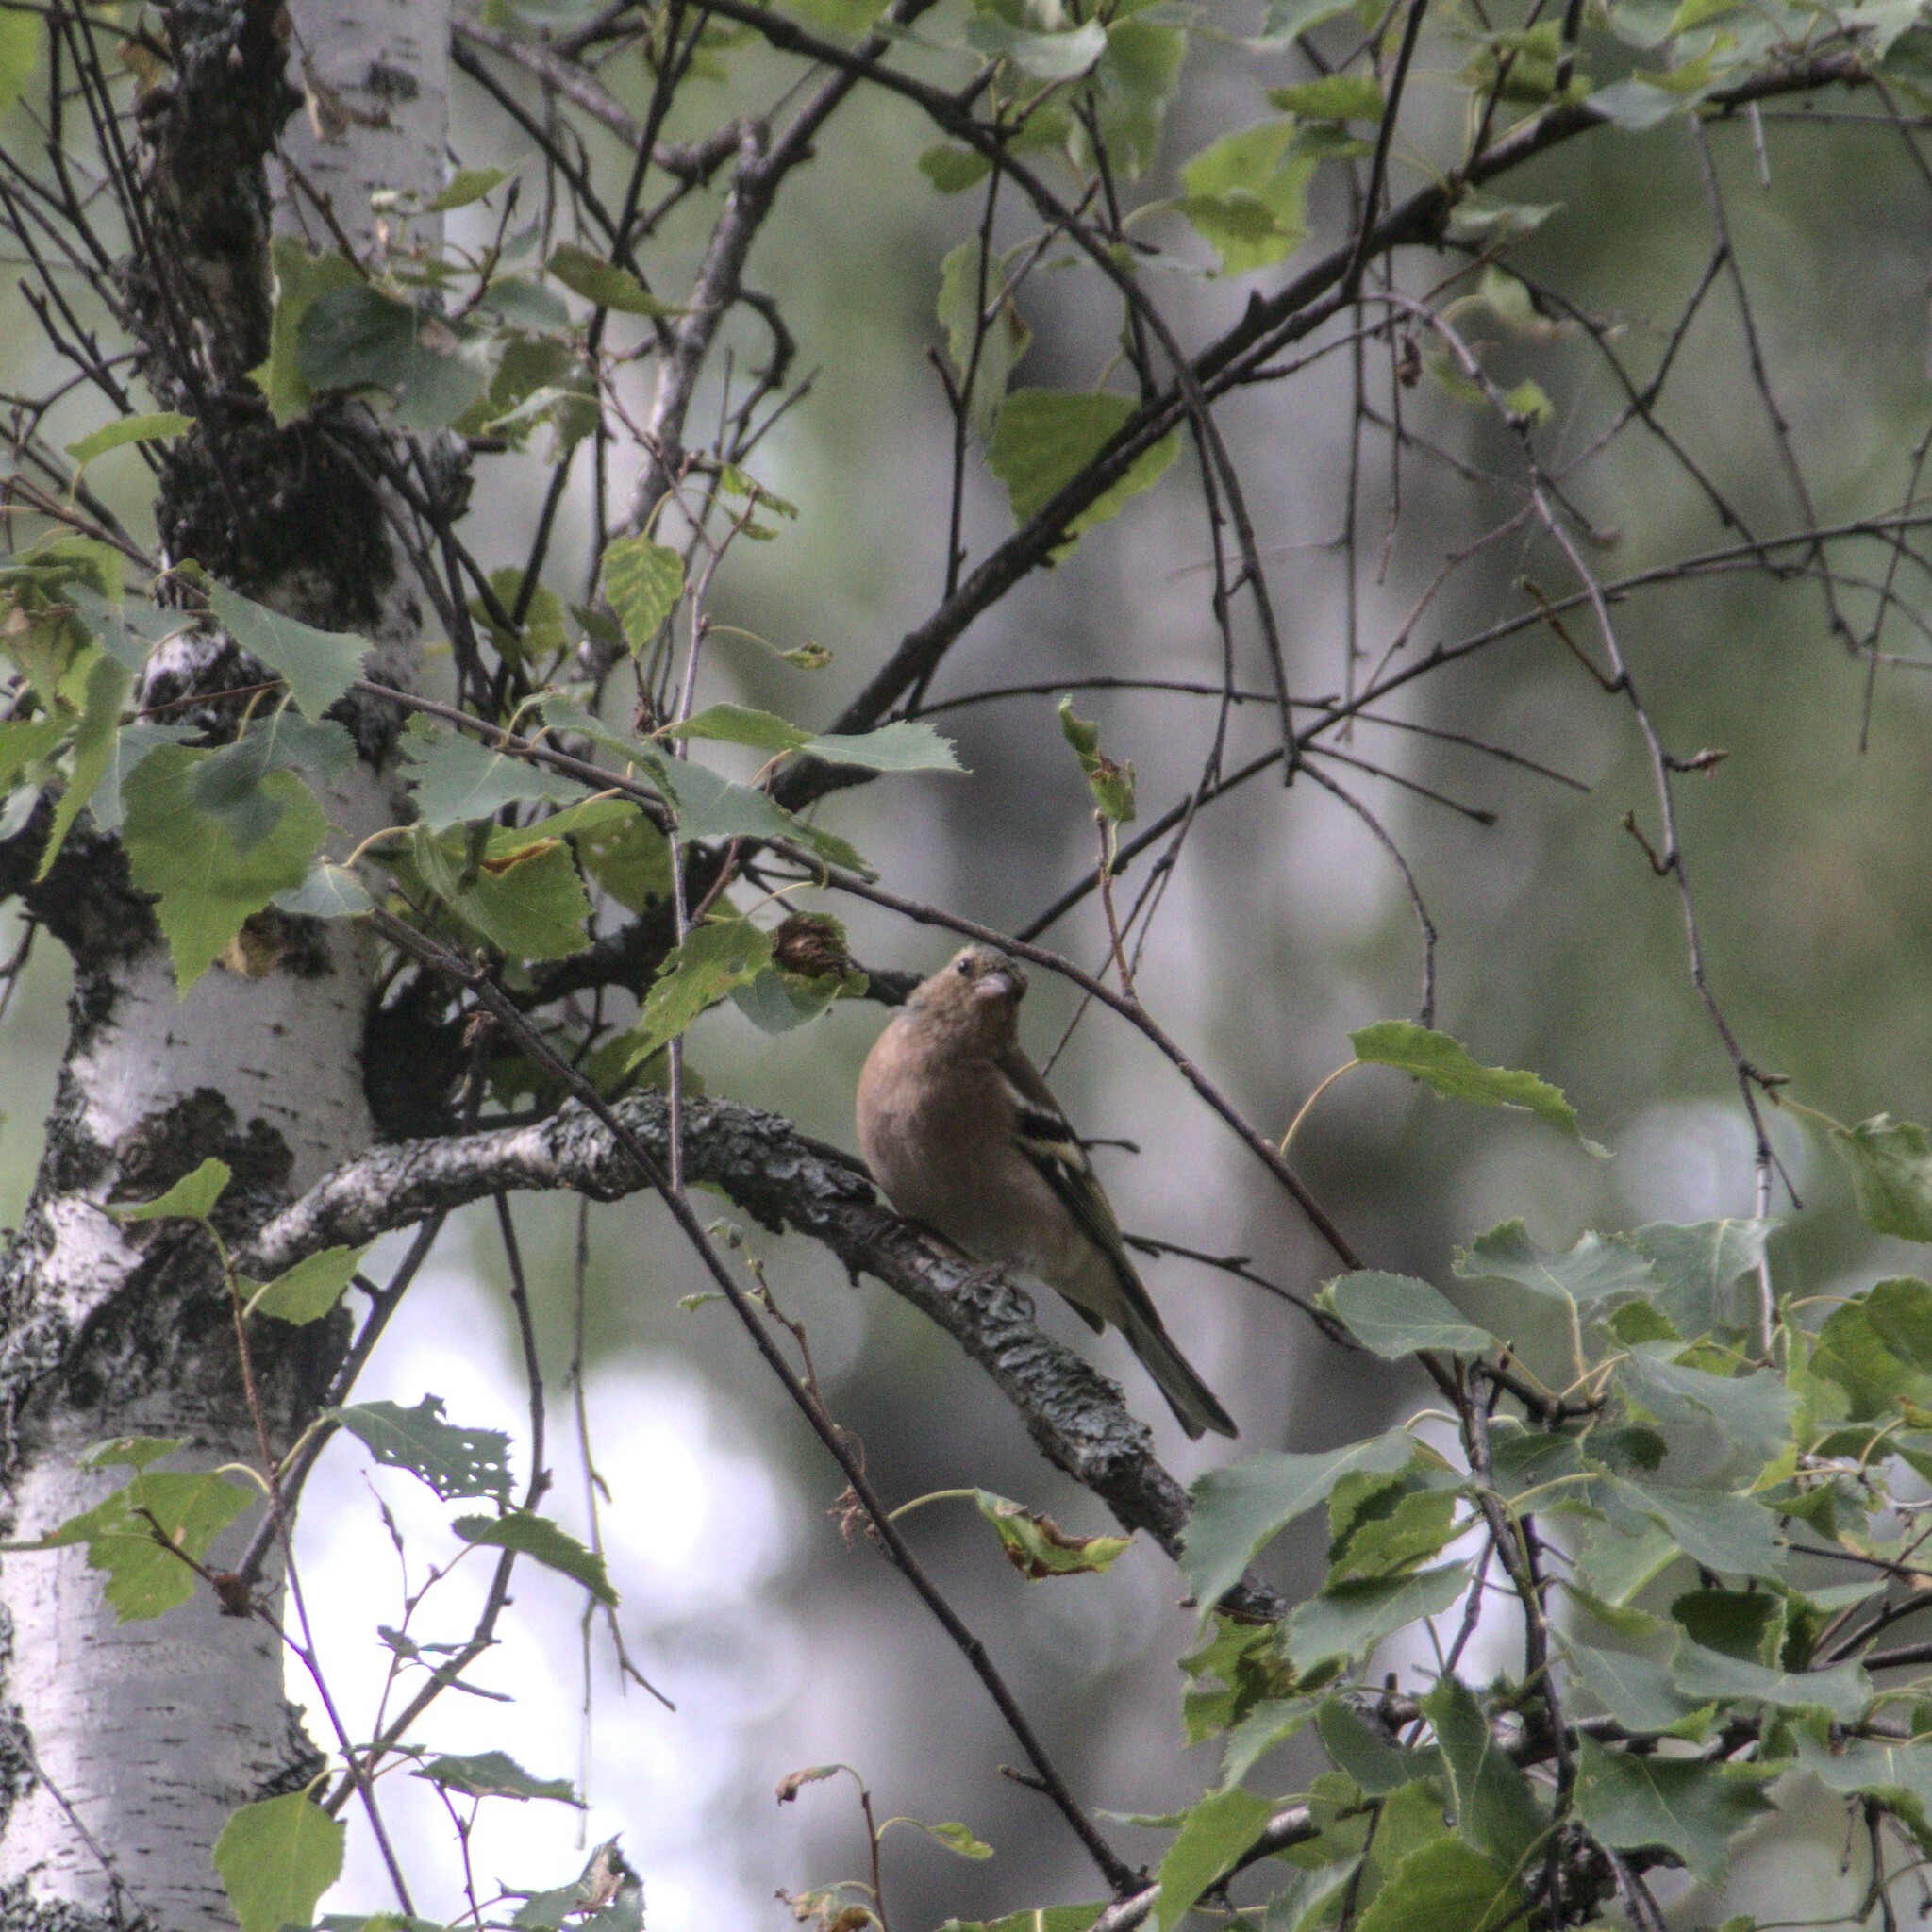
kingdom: Animalia
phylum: Chordata
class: Aves
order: Passeriformes
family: Fringillidae
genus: Fringilla
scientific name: Fringilla coelebs
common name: Common chaffinch
